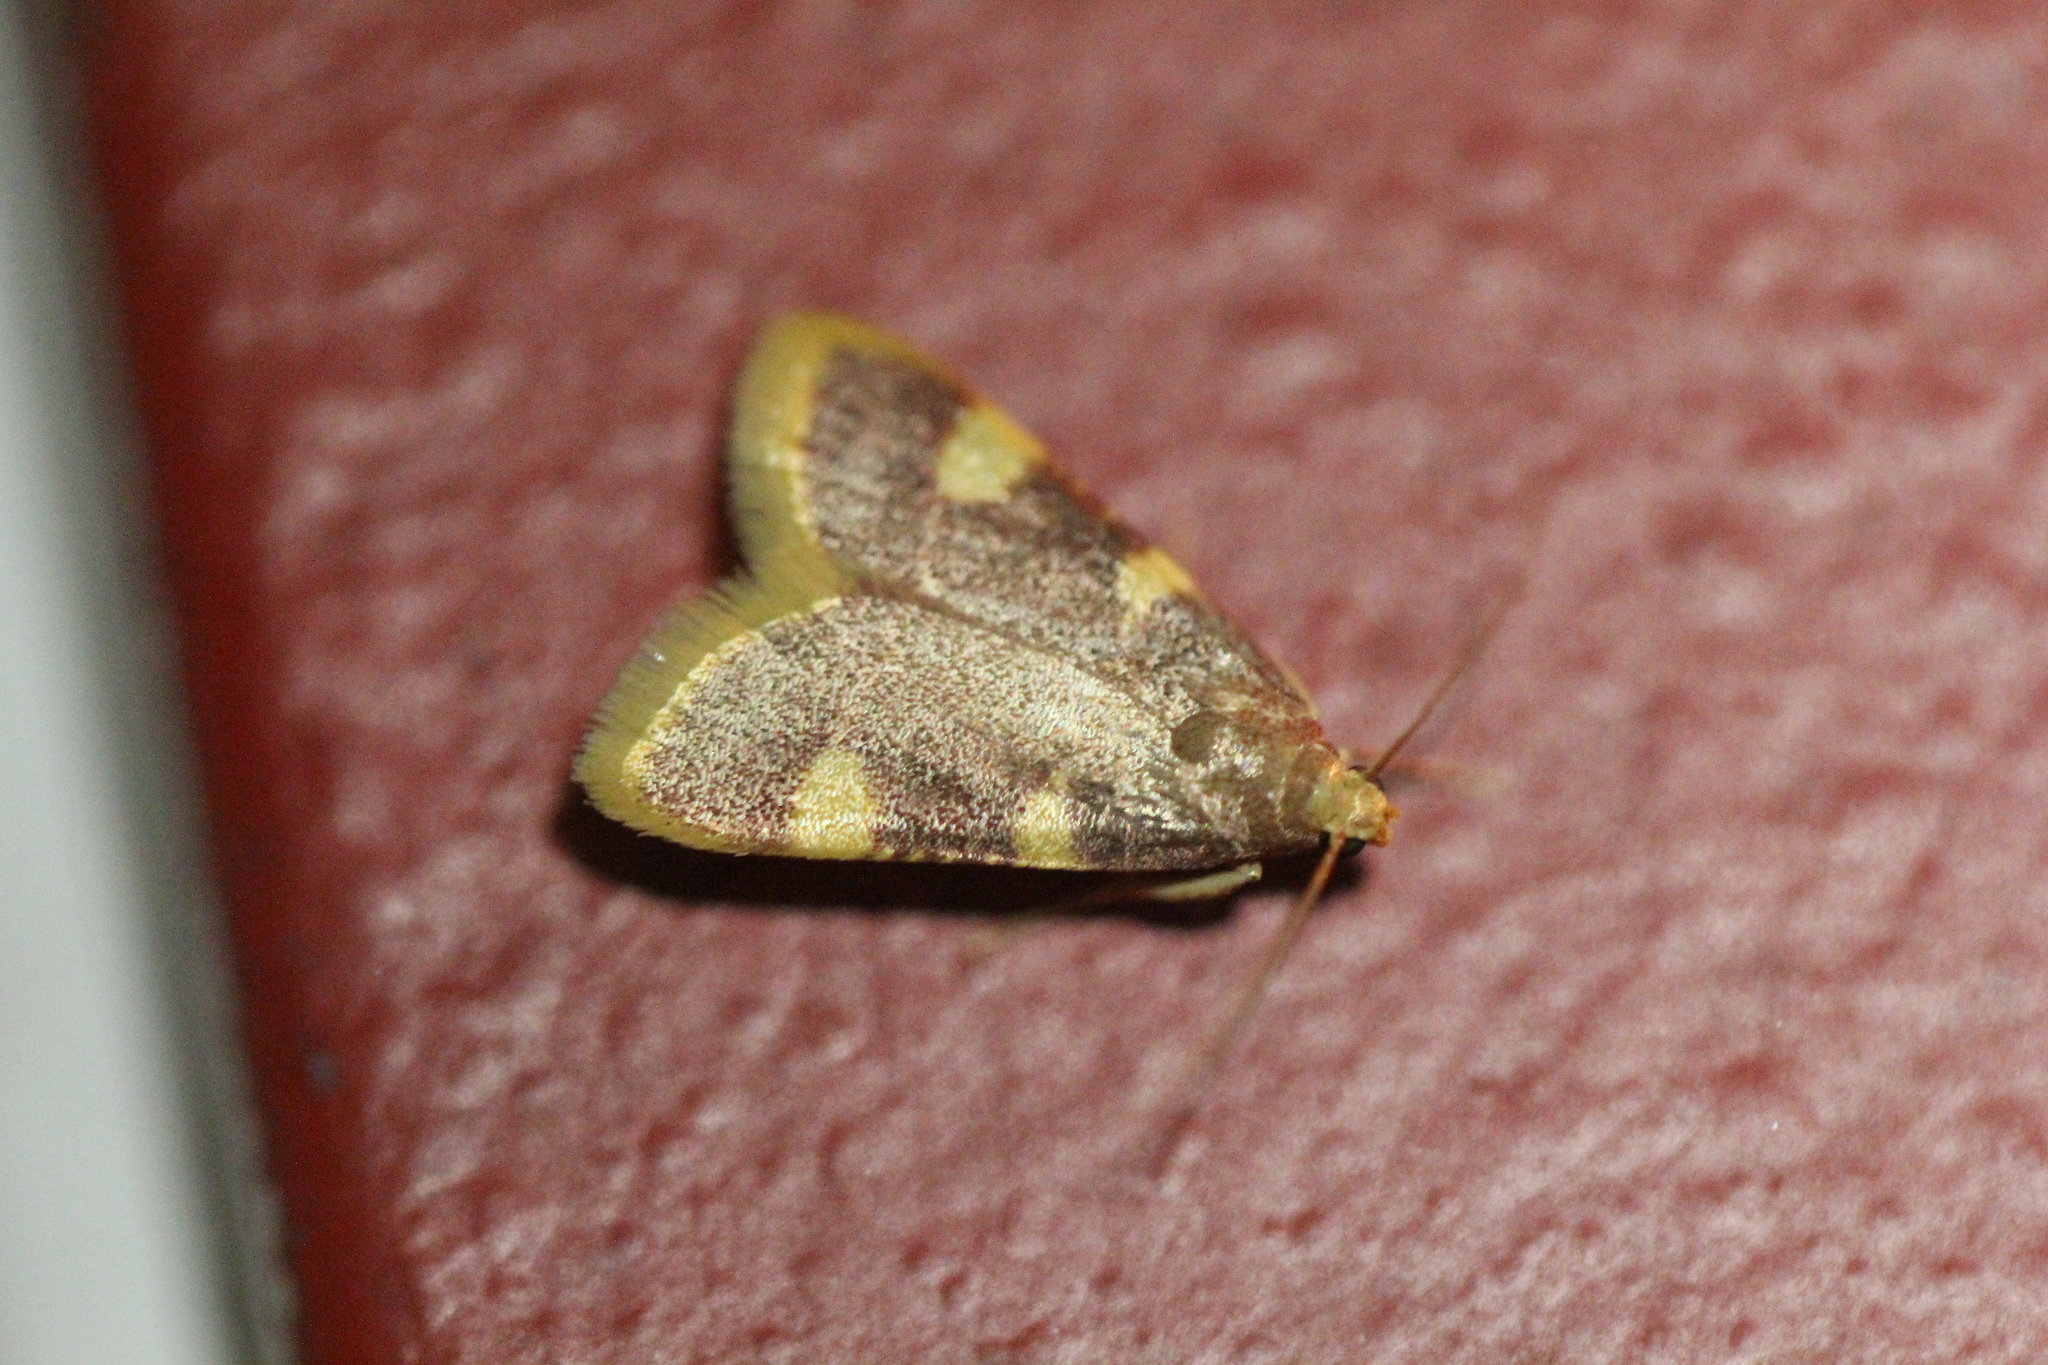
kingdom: Animalia
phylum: Arthropoda
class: Insecta
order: Lepidoptera
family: Pyralidae
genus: Hypsopygia
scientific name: Hypsopygia costalis
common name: Gold triangle
